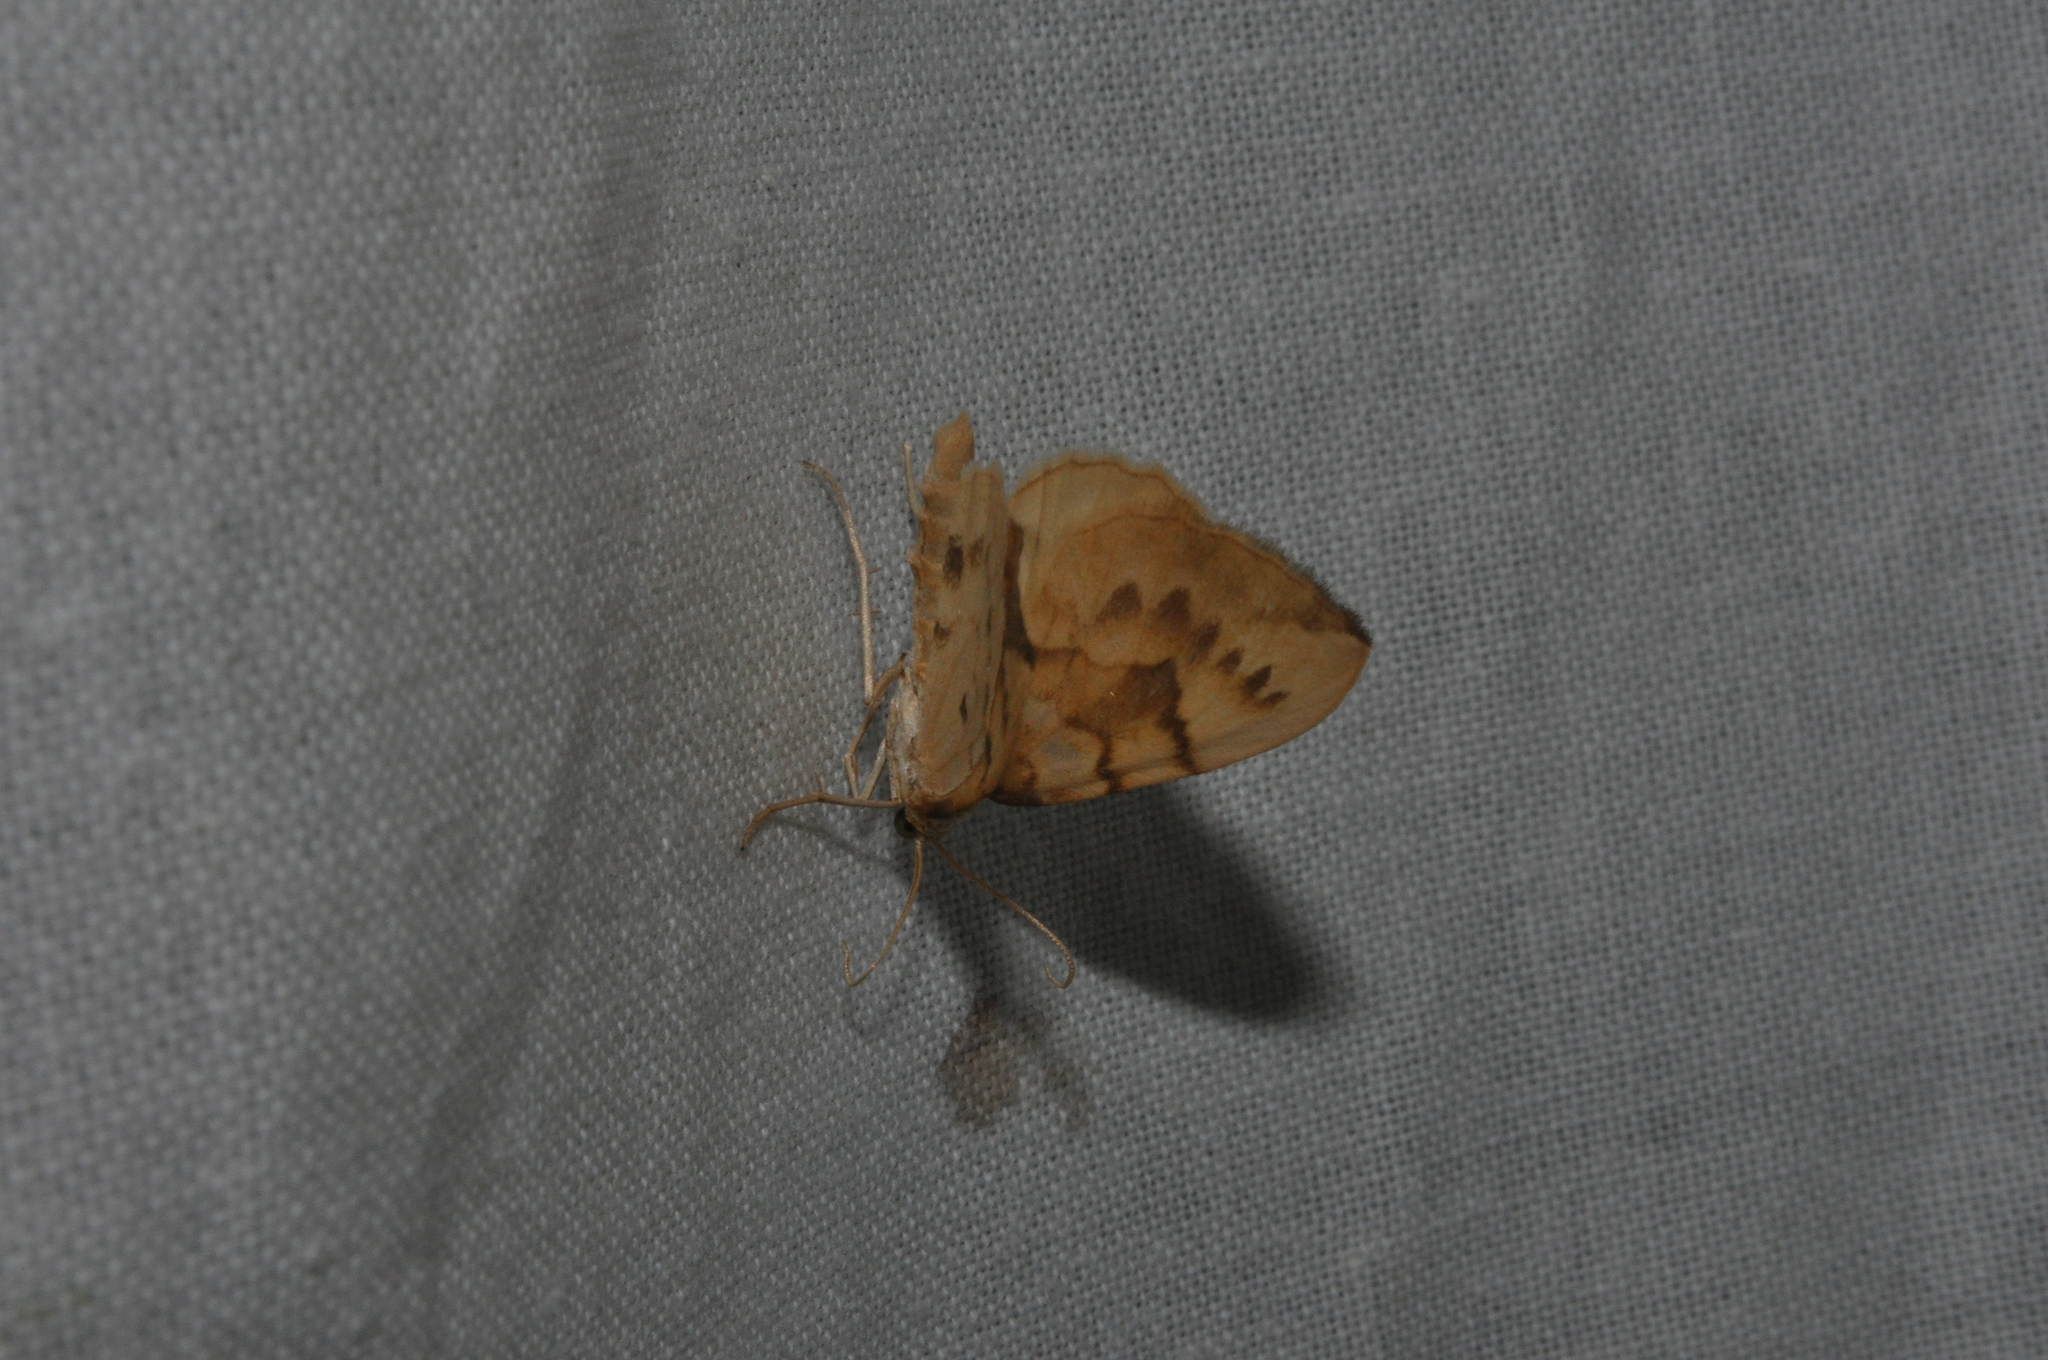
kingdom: Animalia
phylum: Arthropoda
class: Insecta
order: Lepidoptera
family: Geometridae
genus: Eulithis
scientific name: Eulithis pyraliata
